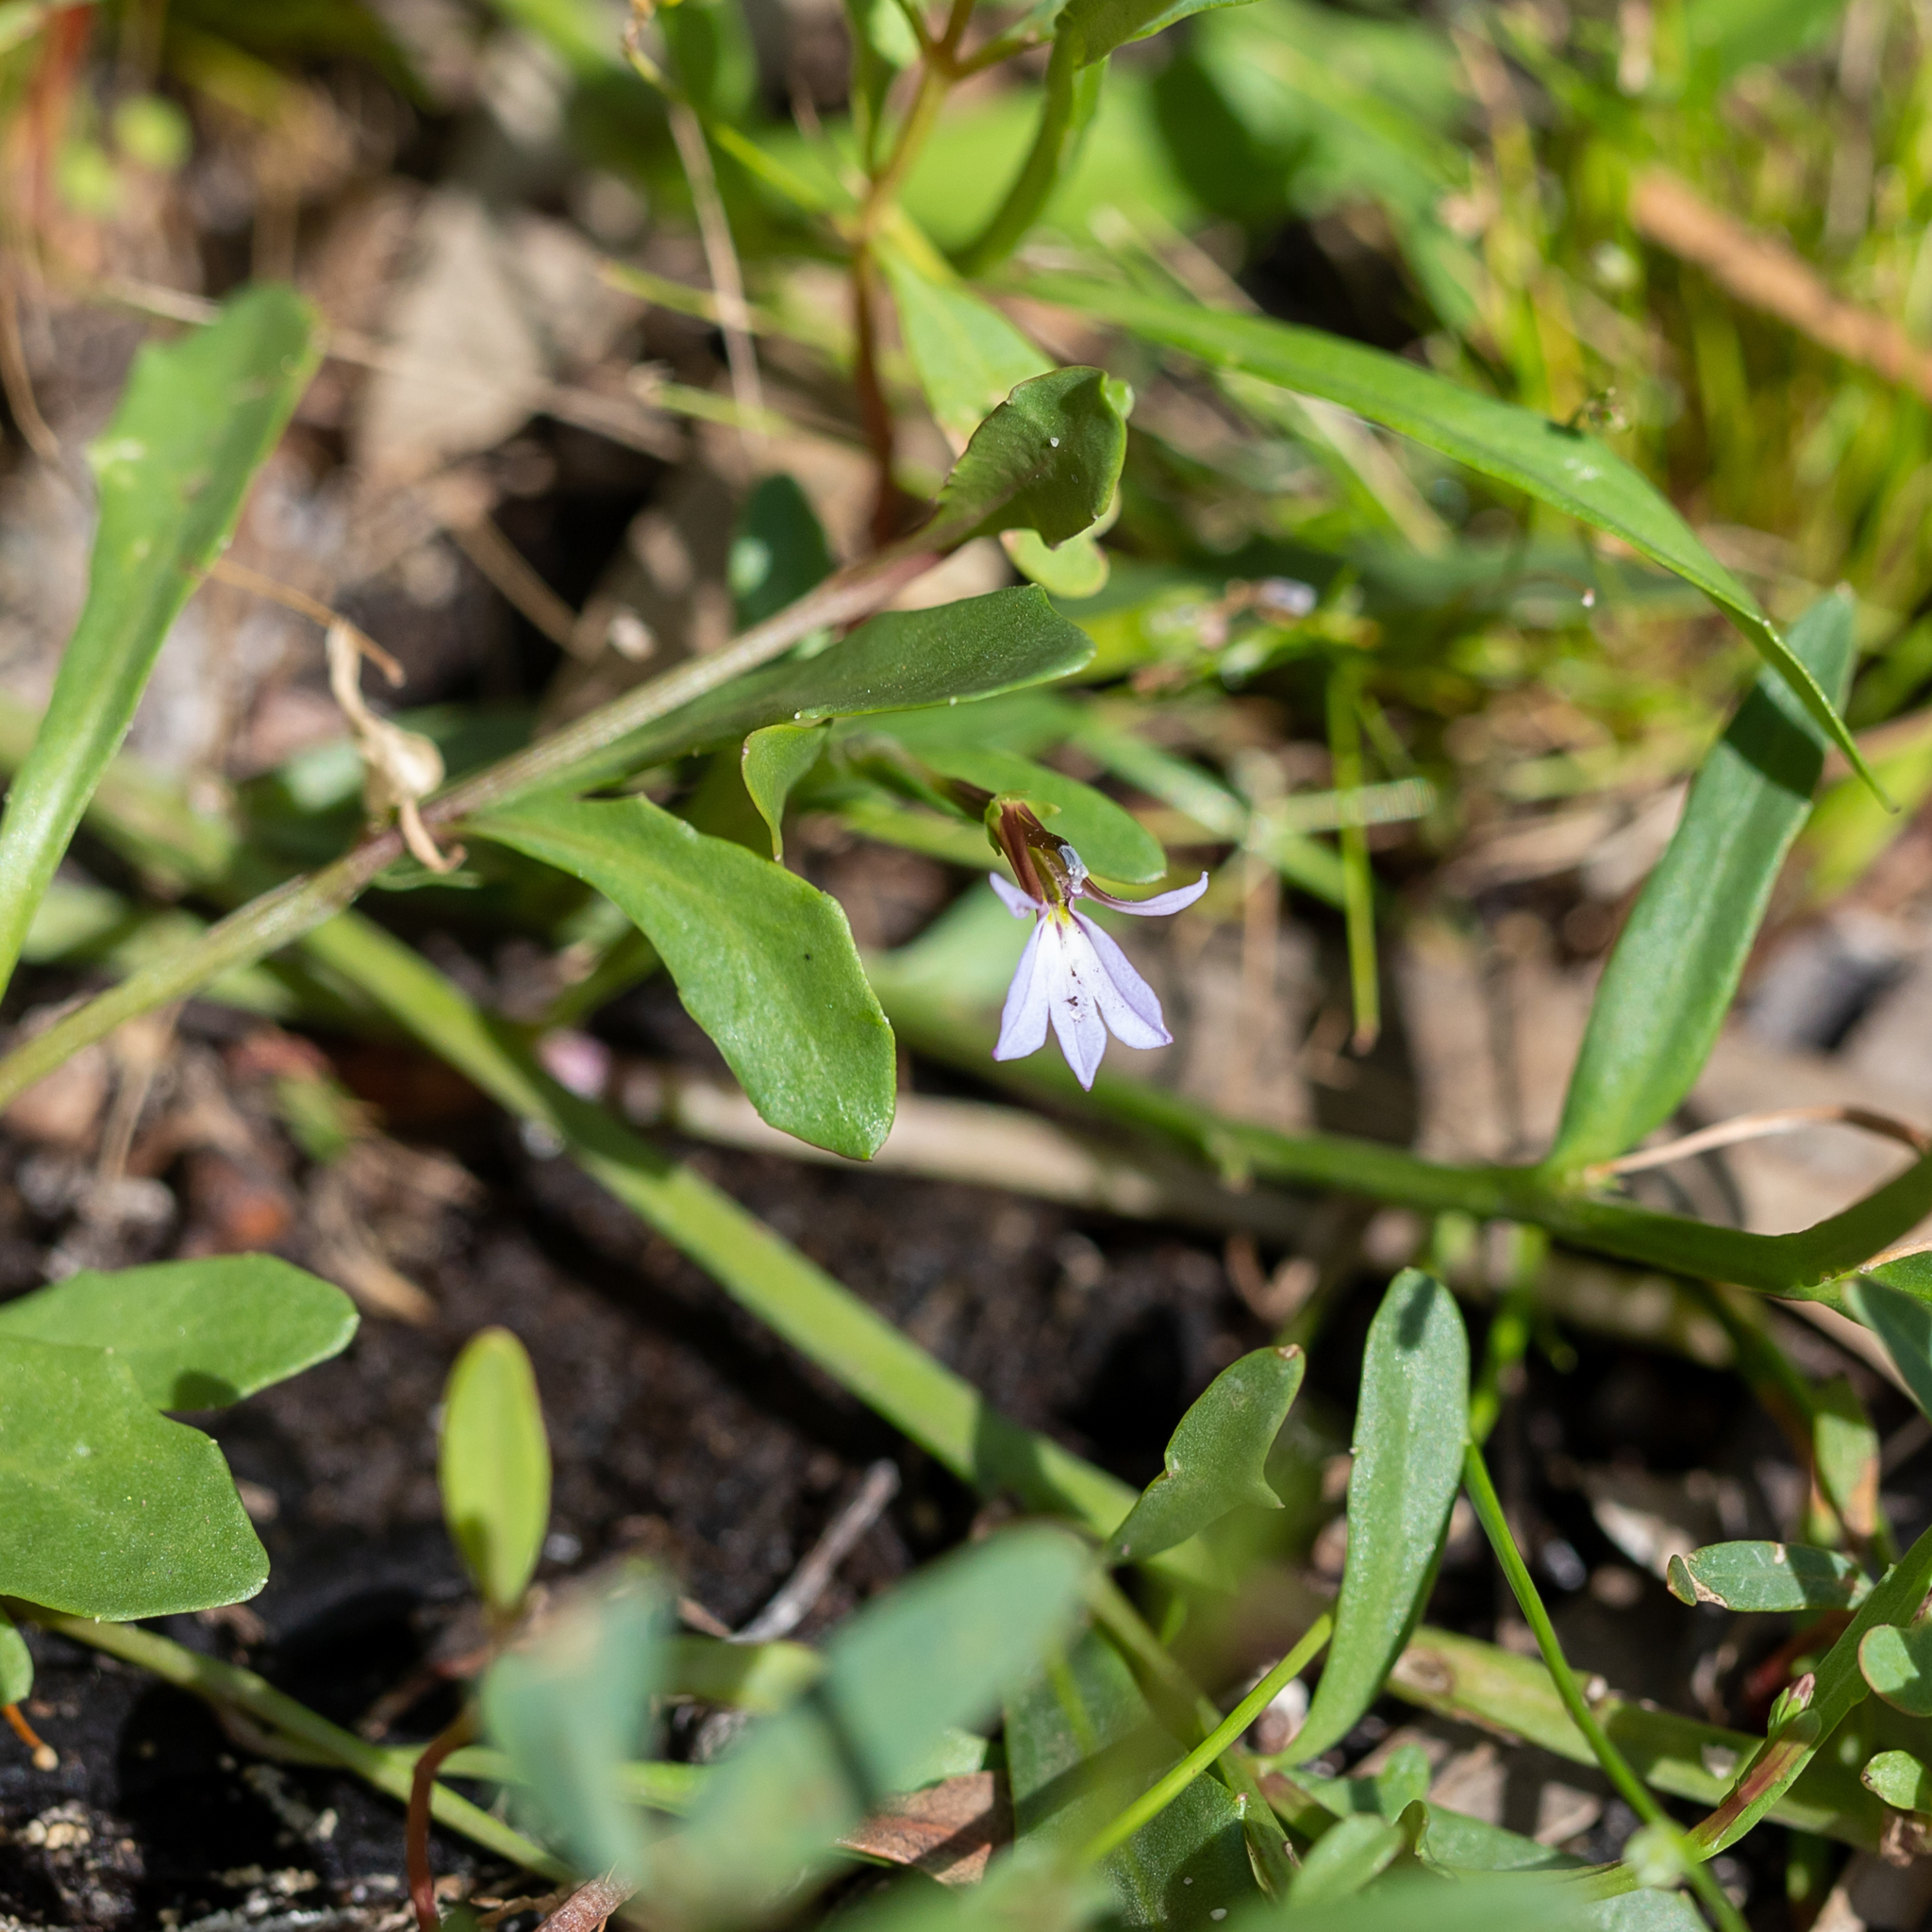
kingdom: Plantae
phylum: Tracheophyta
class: Magnoliopsida
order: Asterales
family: Campanulaceae
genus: Lobelia
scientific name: Lobelia anceps
